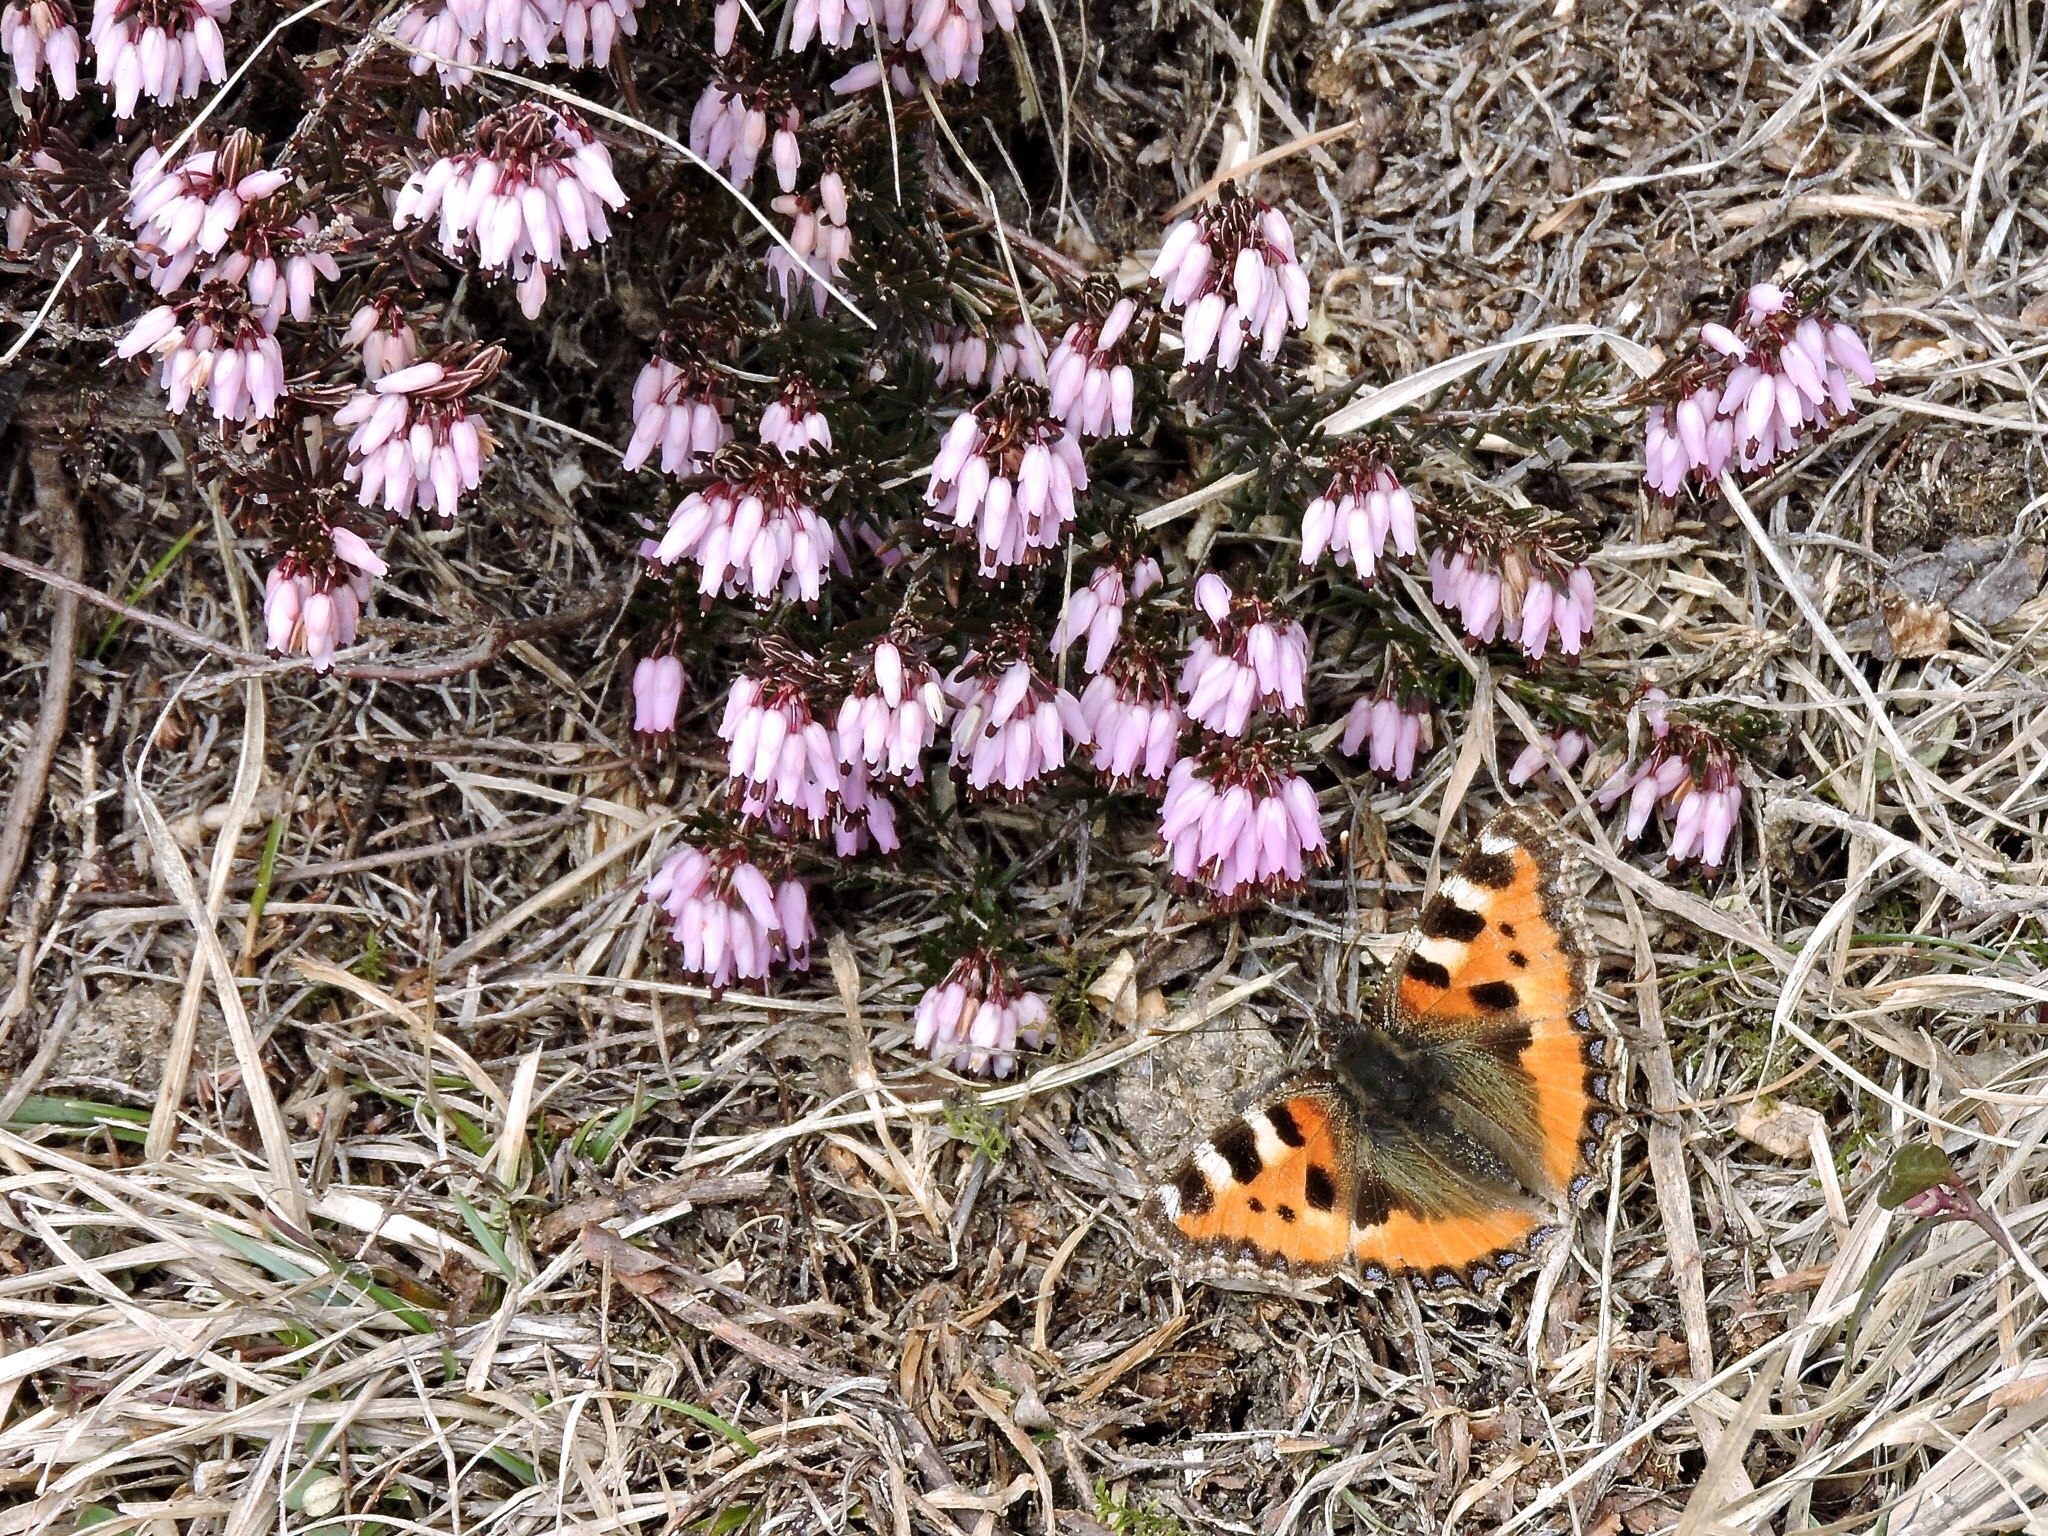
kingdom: Animalia
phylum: Arthropoda
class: Insecta
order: Lepidoptera
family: Nymphalidae
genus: Aglais
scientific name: Aglais urticae
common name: Small tortoiseshell
